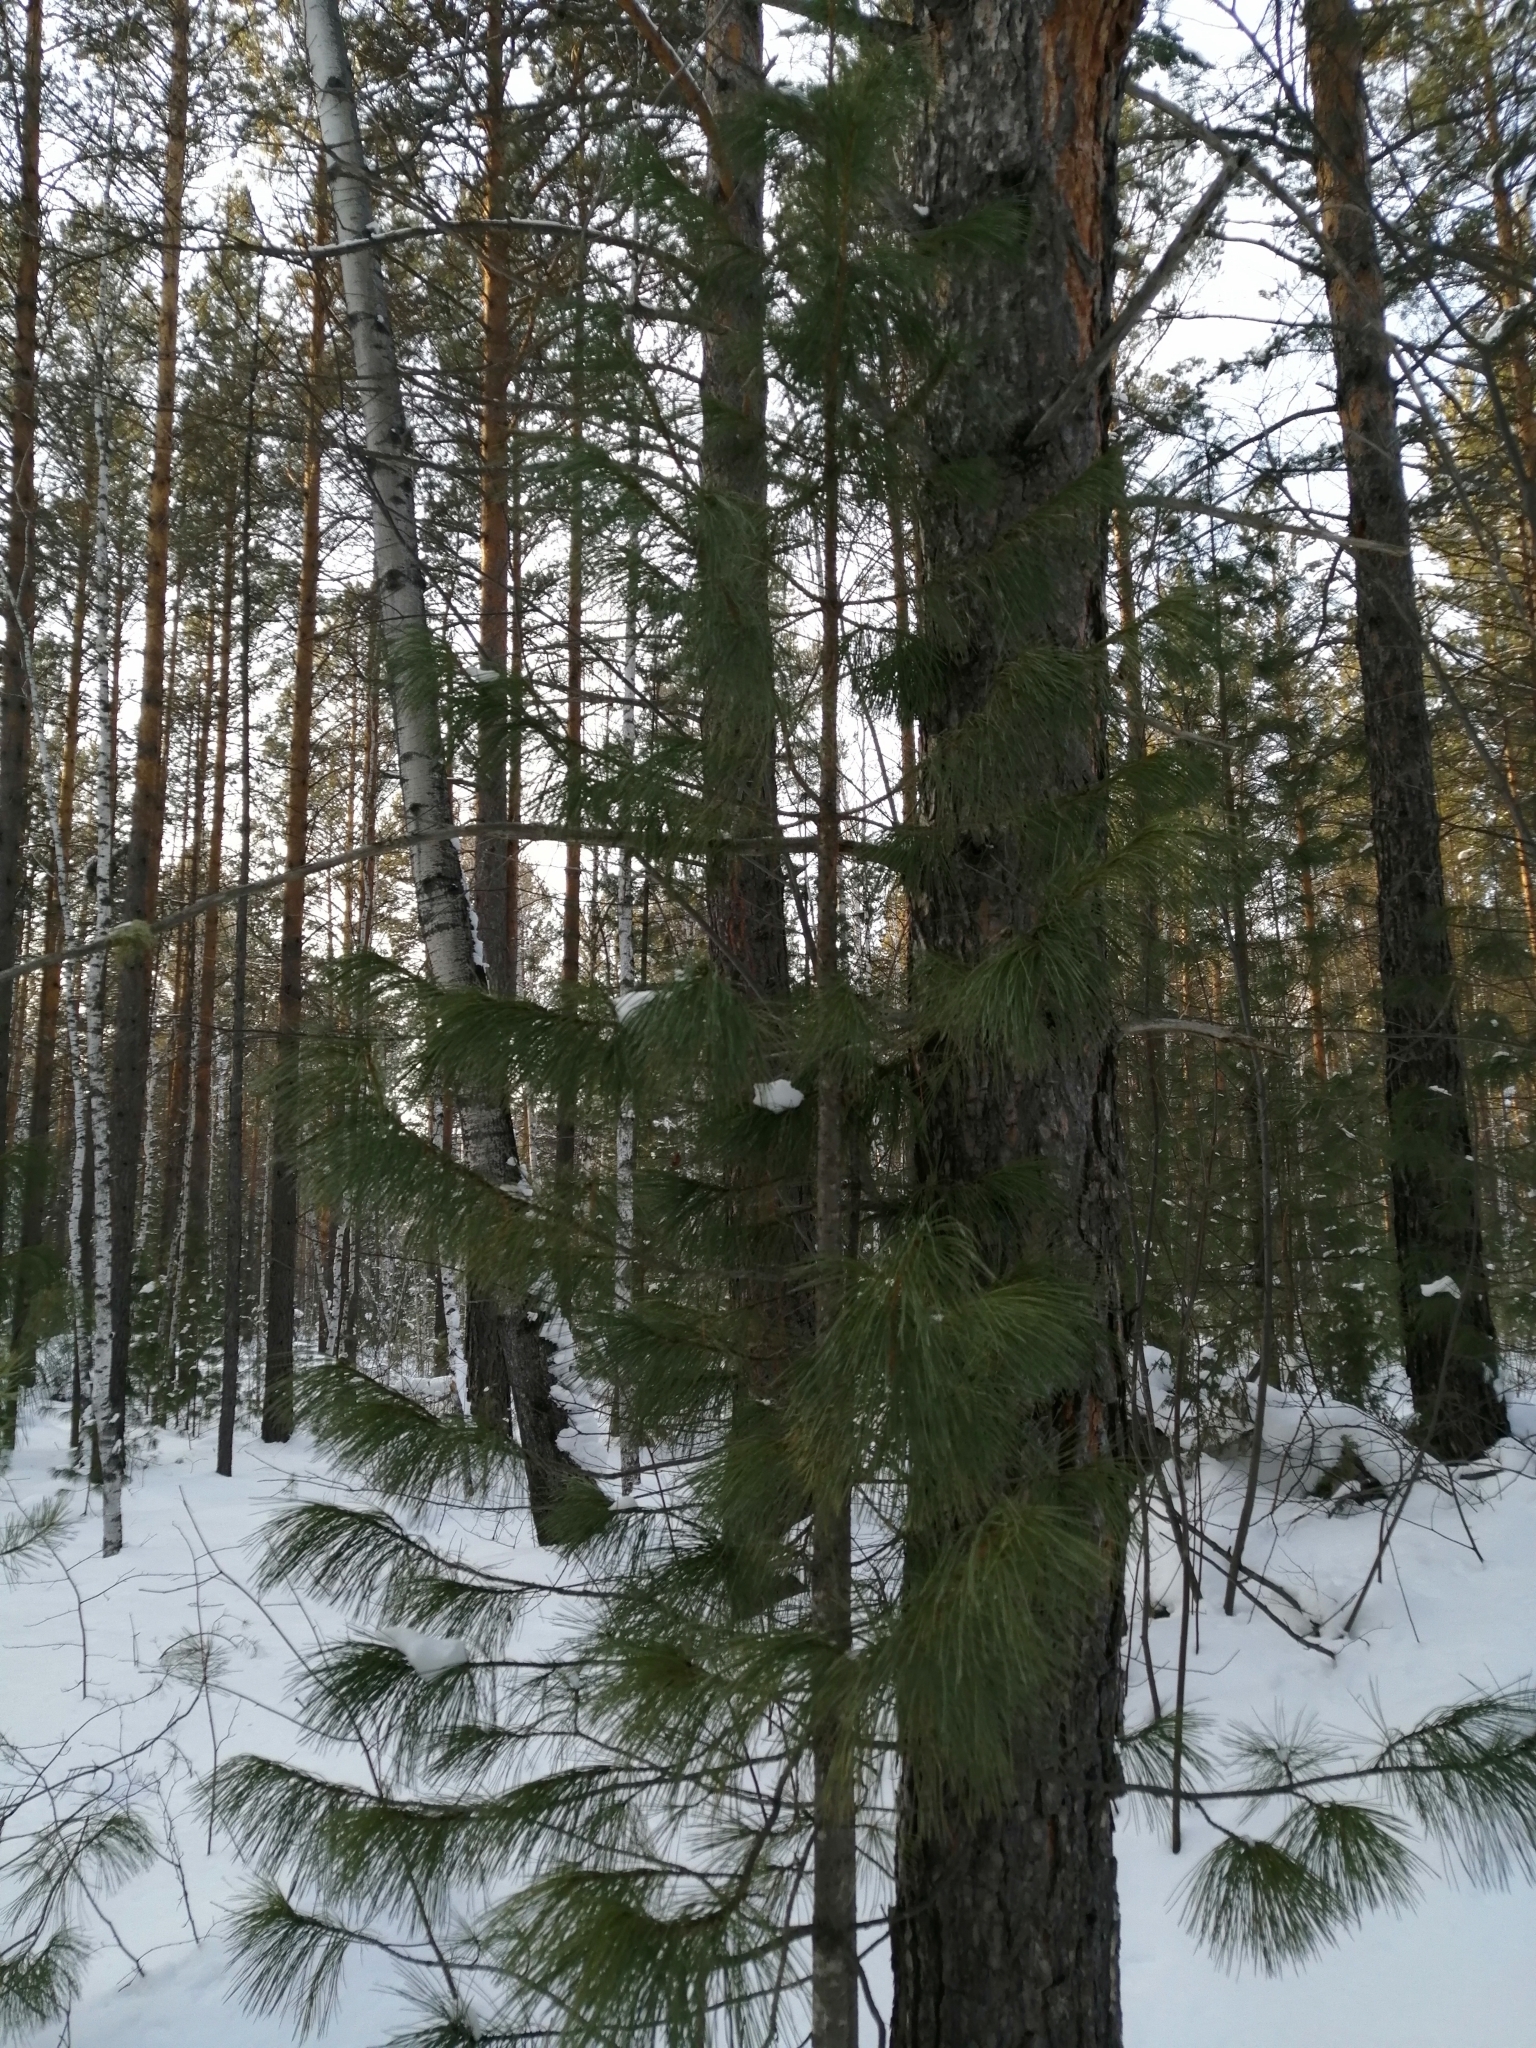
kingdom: Plantae
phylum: Tracheophyta
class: Pinopsida
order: Pinales
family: Pinaceae
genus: Pinus
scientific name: Pinus sibirica
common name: Siberian pine
